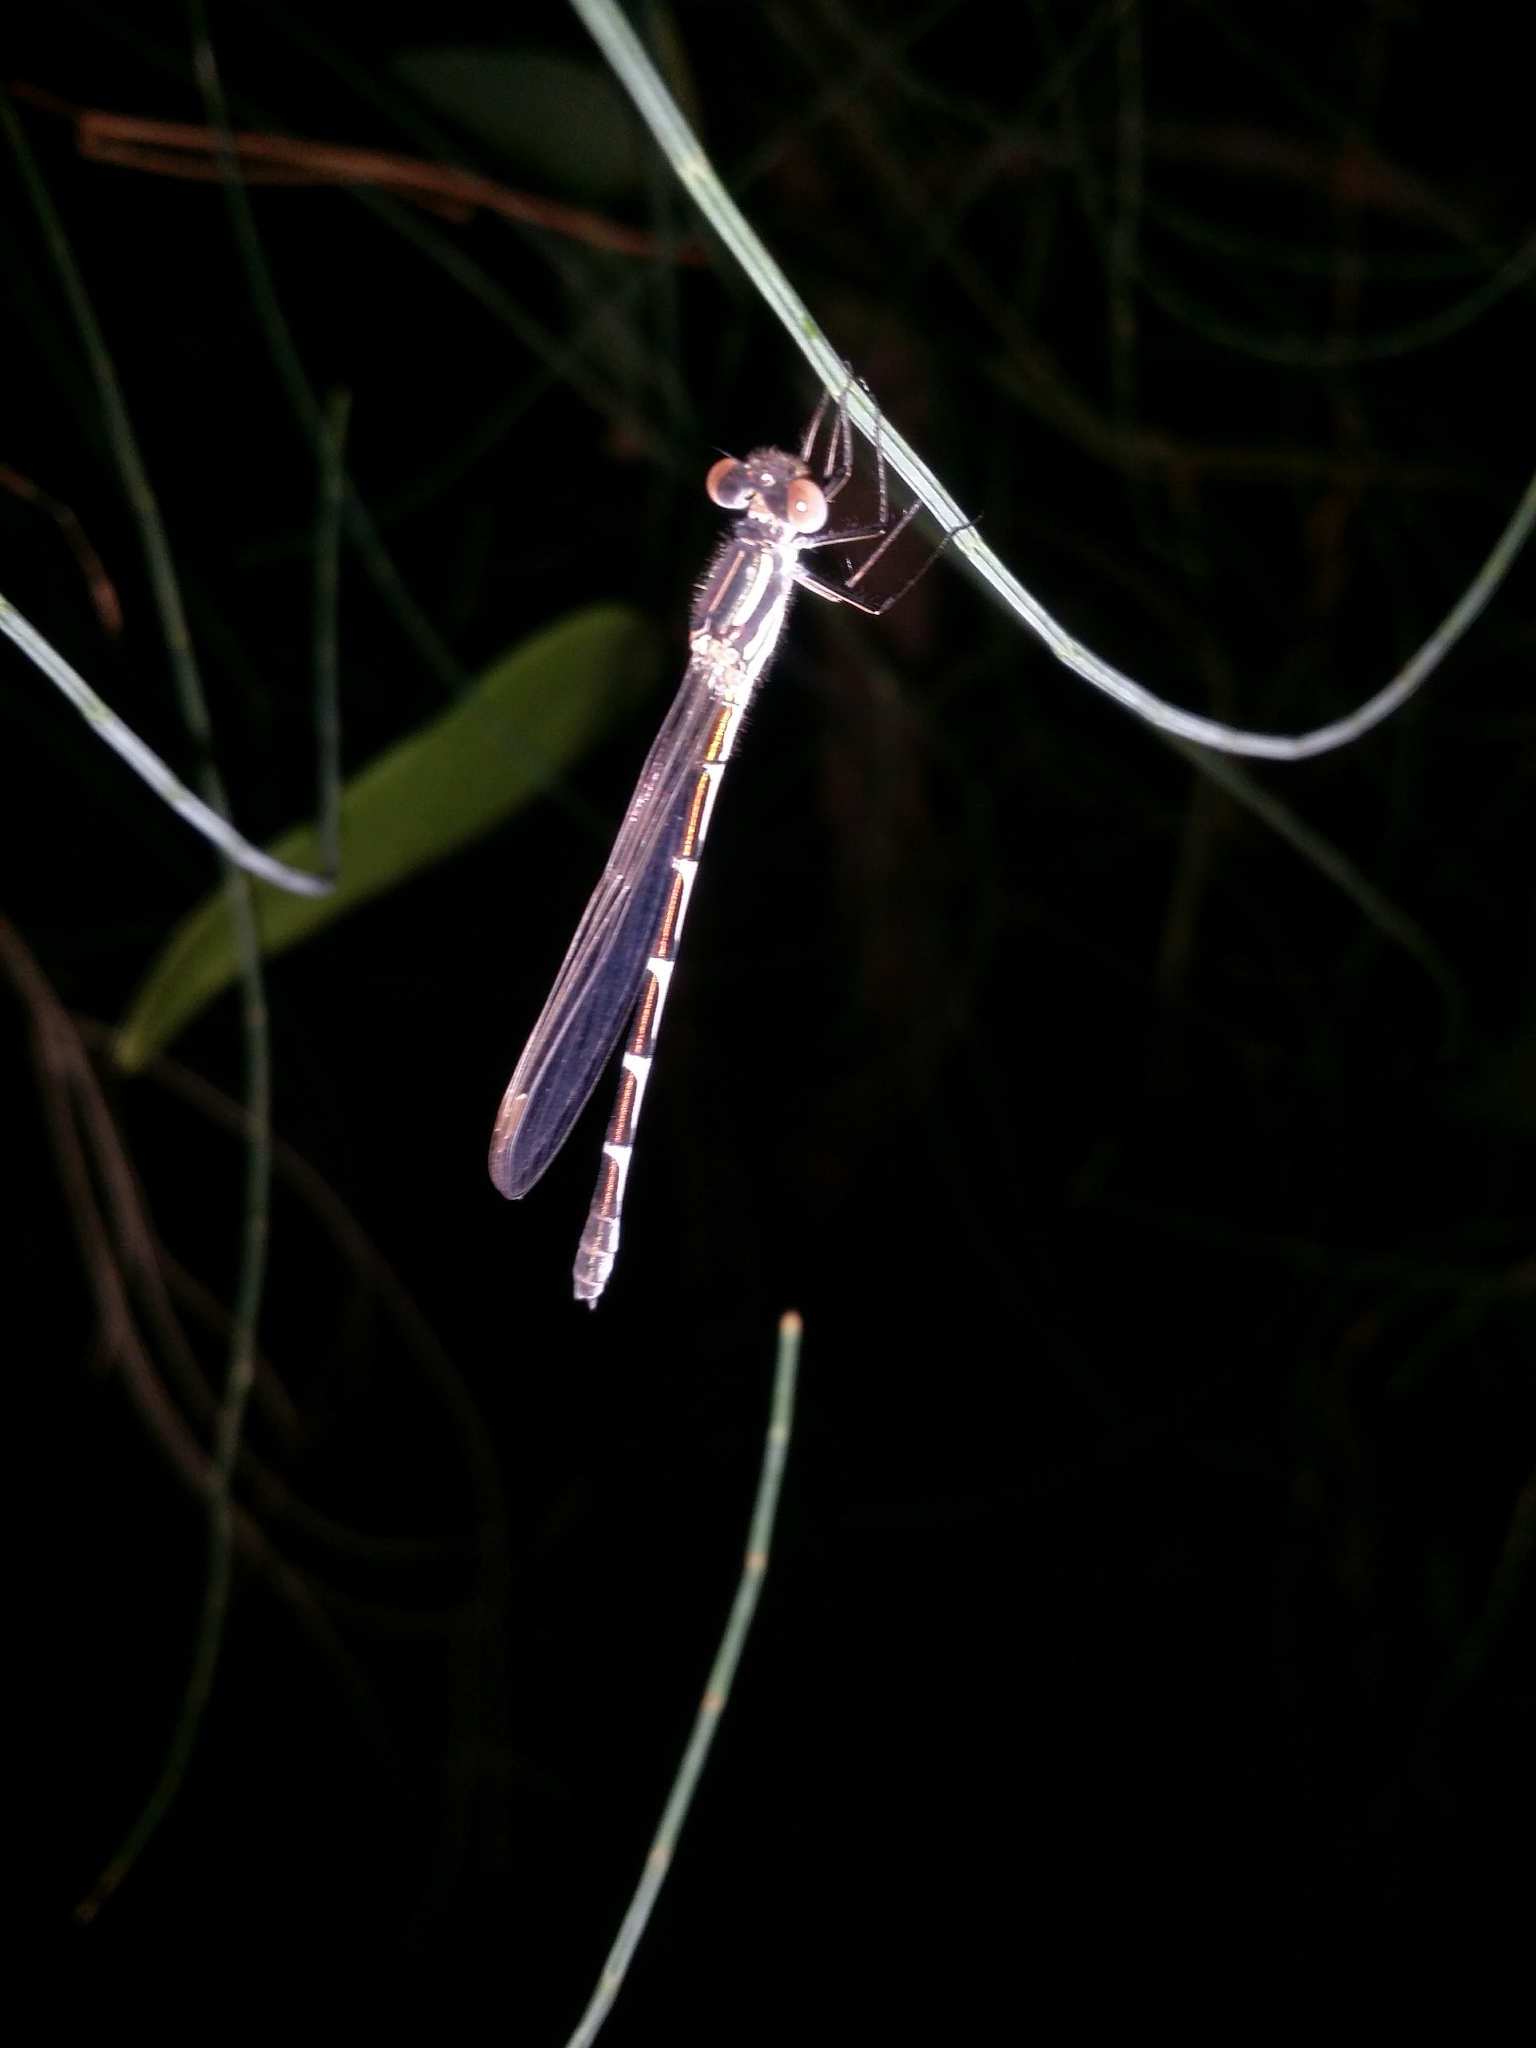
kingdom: Animalia
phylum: Arthropoda
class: Insecta
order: Odonata
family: Lestidae
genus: Austrolestes
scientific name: Austrolestes annulosus
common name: Blue ringtail
